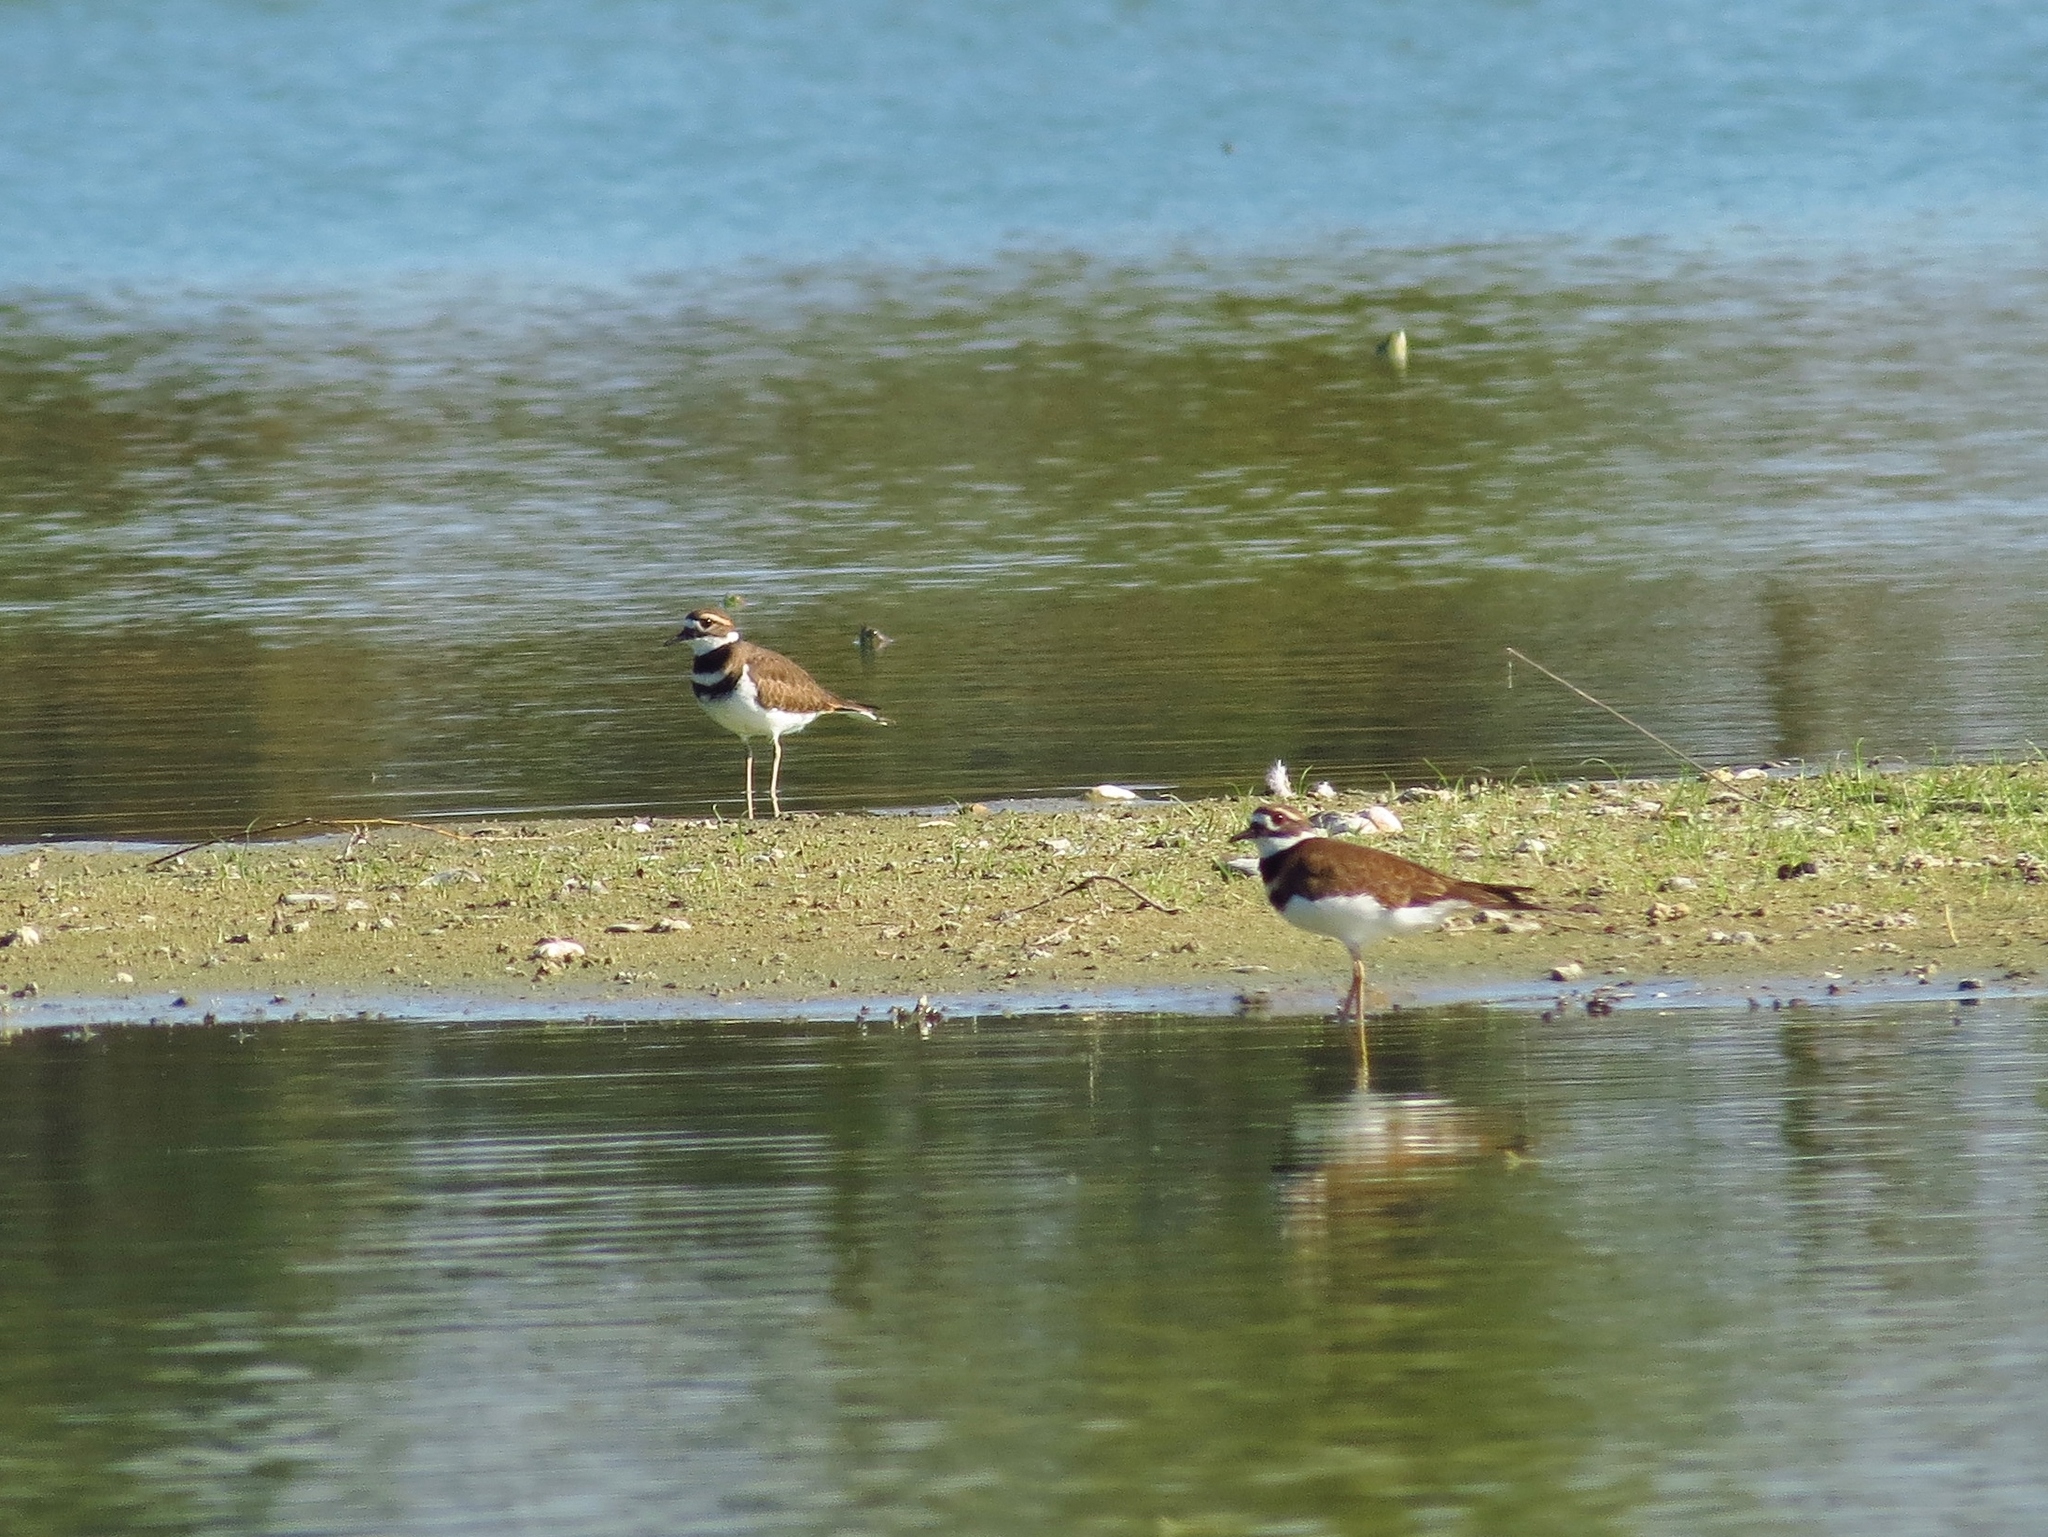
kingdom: Animalia
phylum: Chordata
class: Aves
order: Charadriiformes
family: Charadriidae
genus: Charadrius
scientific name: Charadrius vociferus
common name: Killdeer
